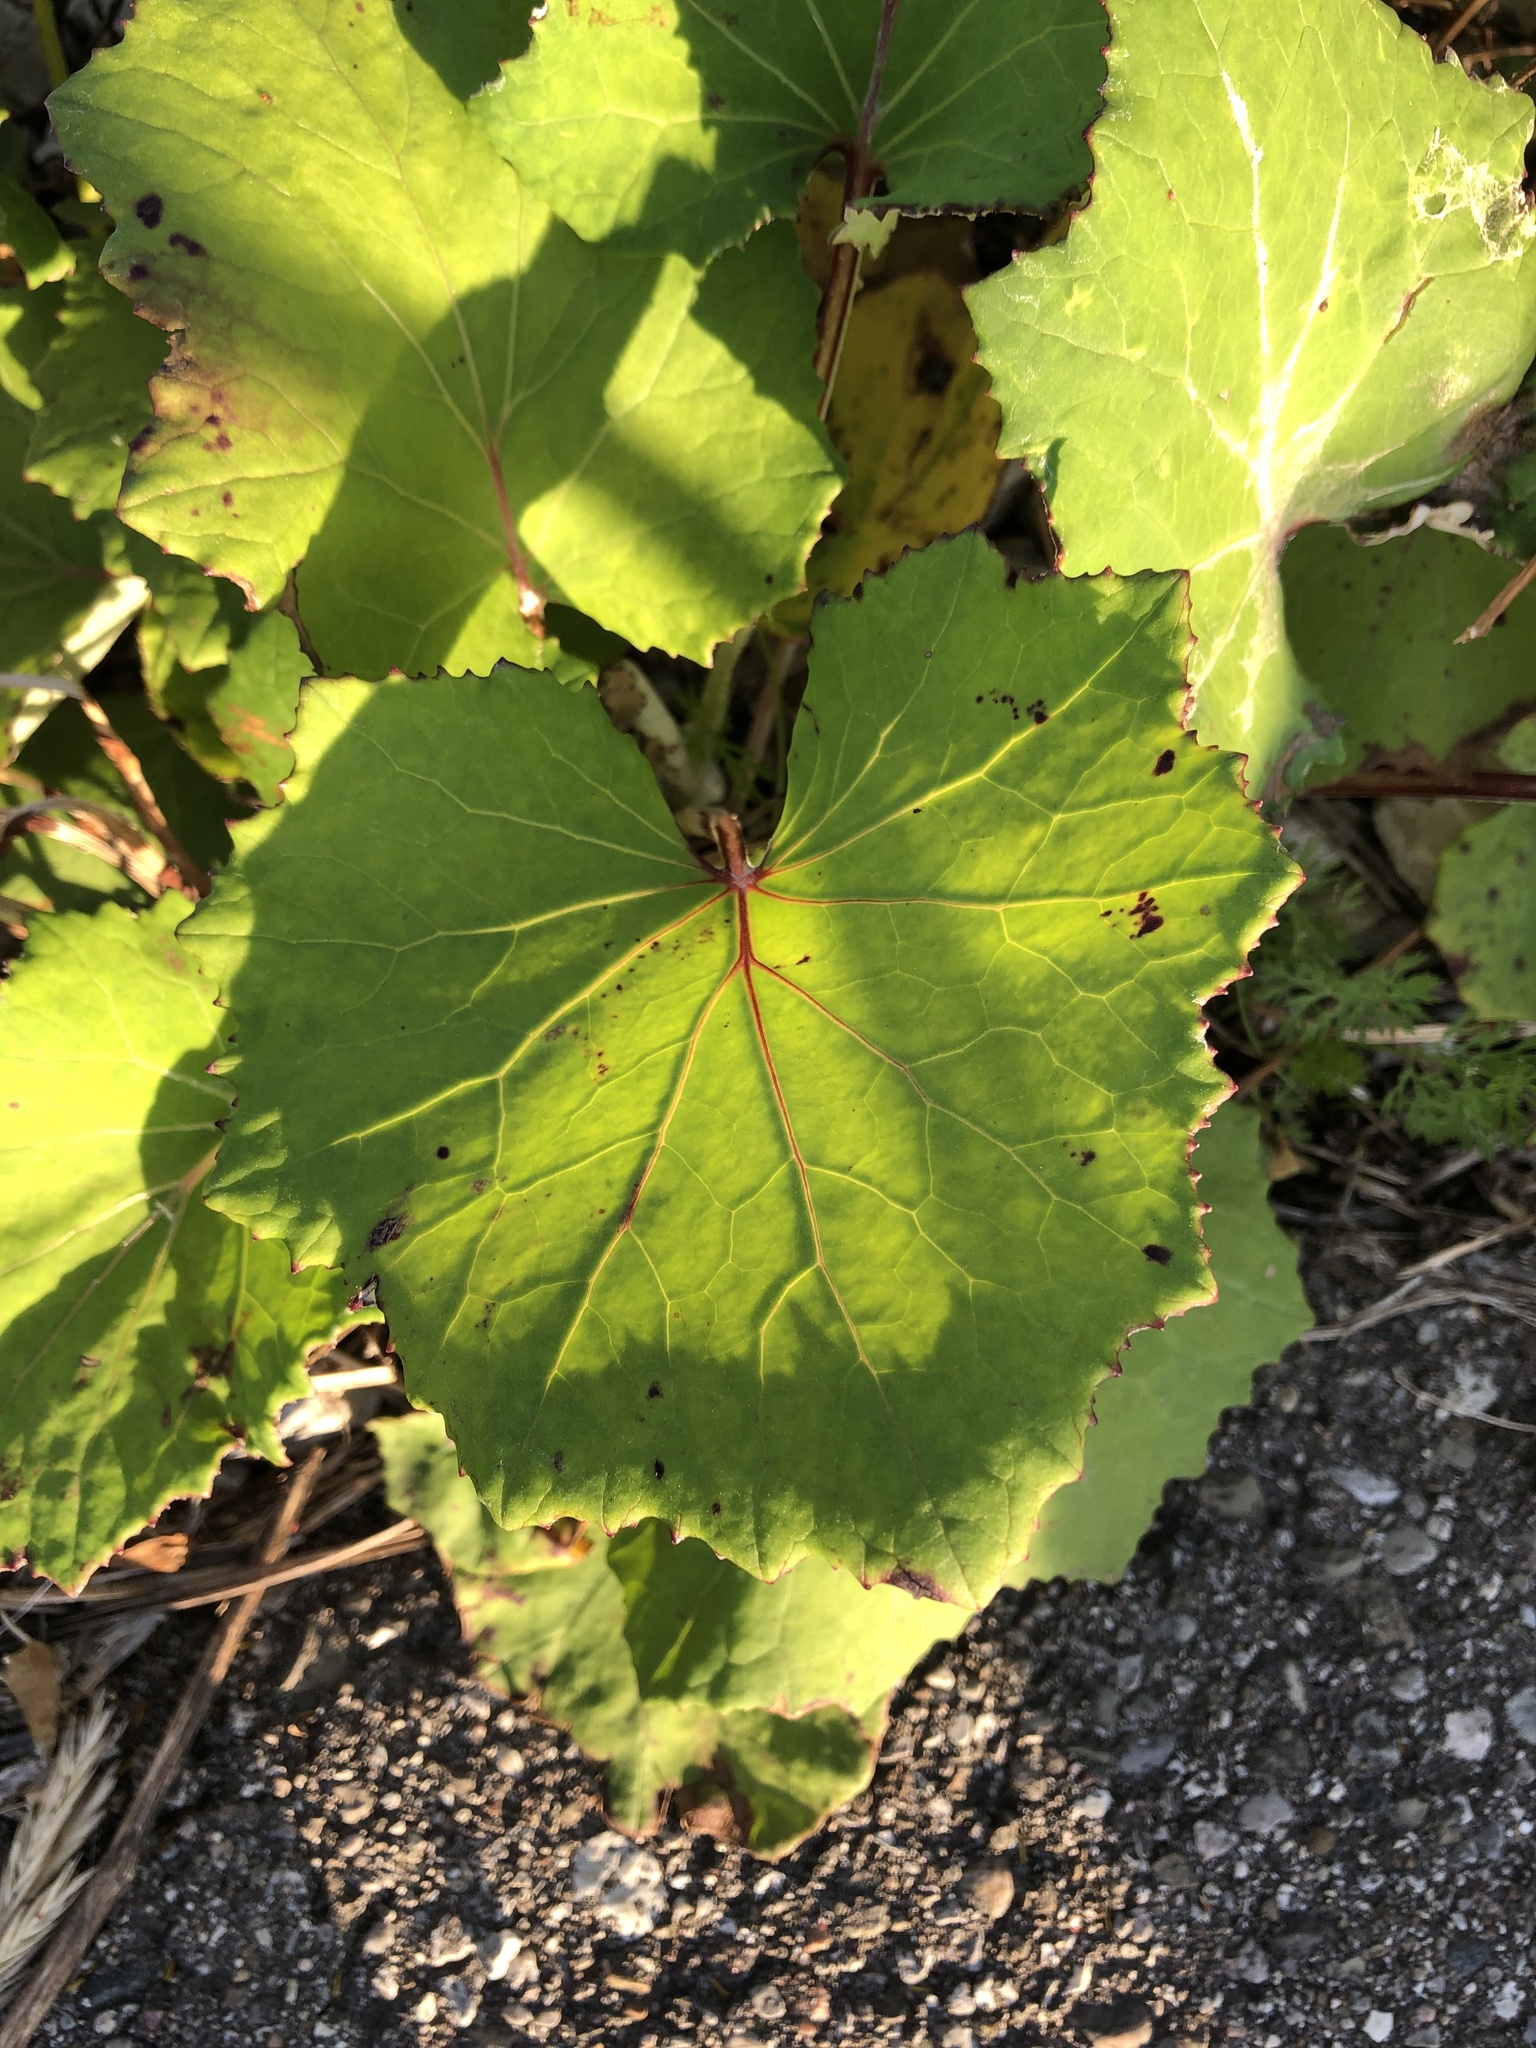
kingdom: Plantae
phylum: Tracheophyta
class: Magnoliopsida
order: Asterales
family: Asteraceae
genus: Tussilago
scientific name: Tussilago farfara
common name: Coltsfoot
